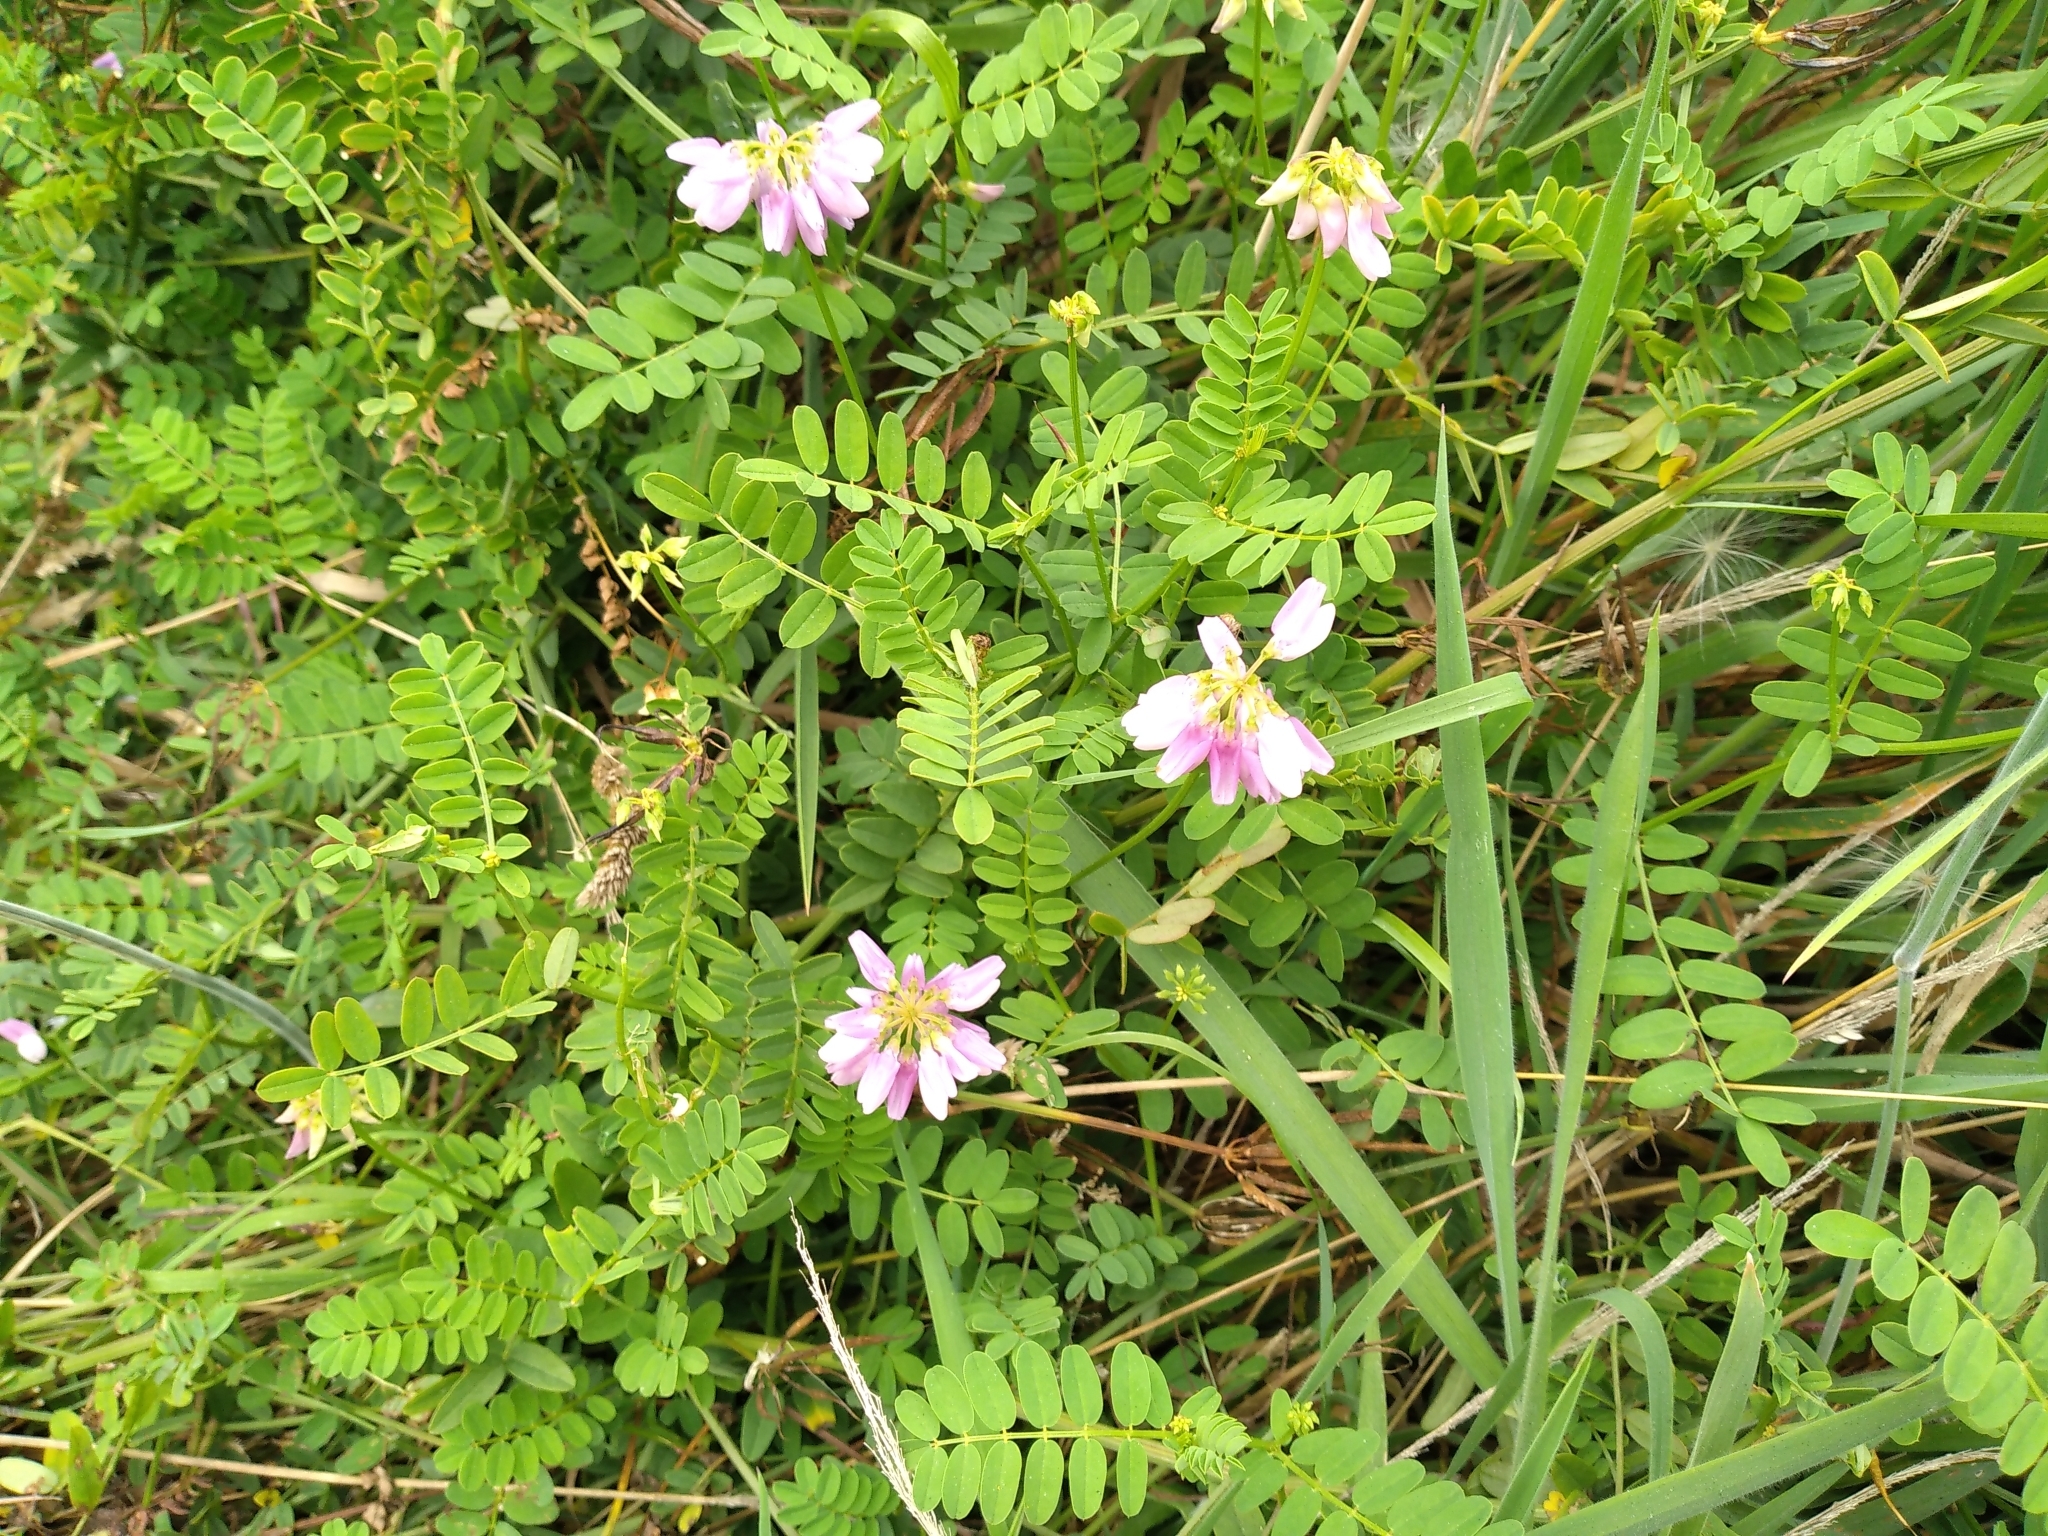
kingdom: Plantae
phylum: Tracheophyta
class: Magnoliopsida
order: Fabales
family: Fabaceae
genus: Coronilla
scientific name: Coronilla varia
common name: Crownvetch
